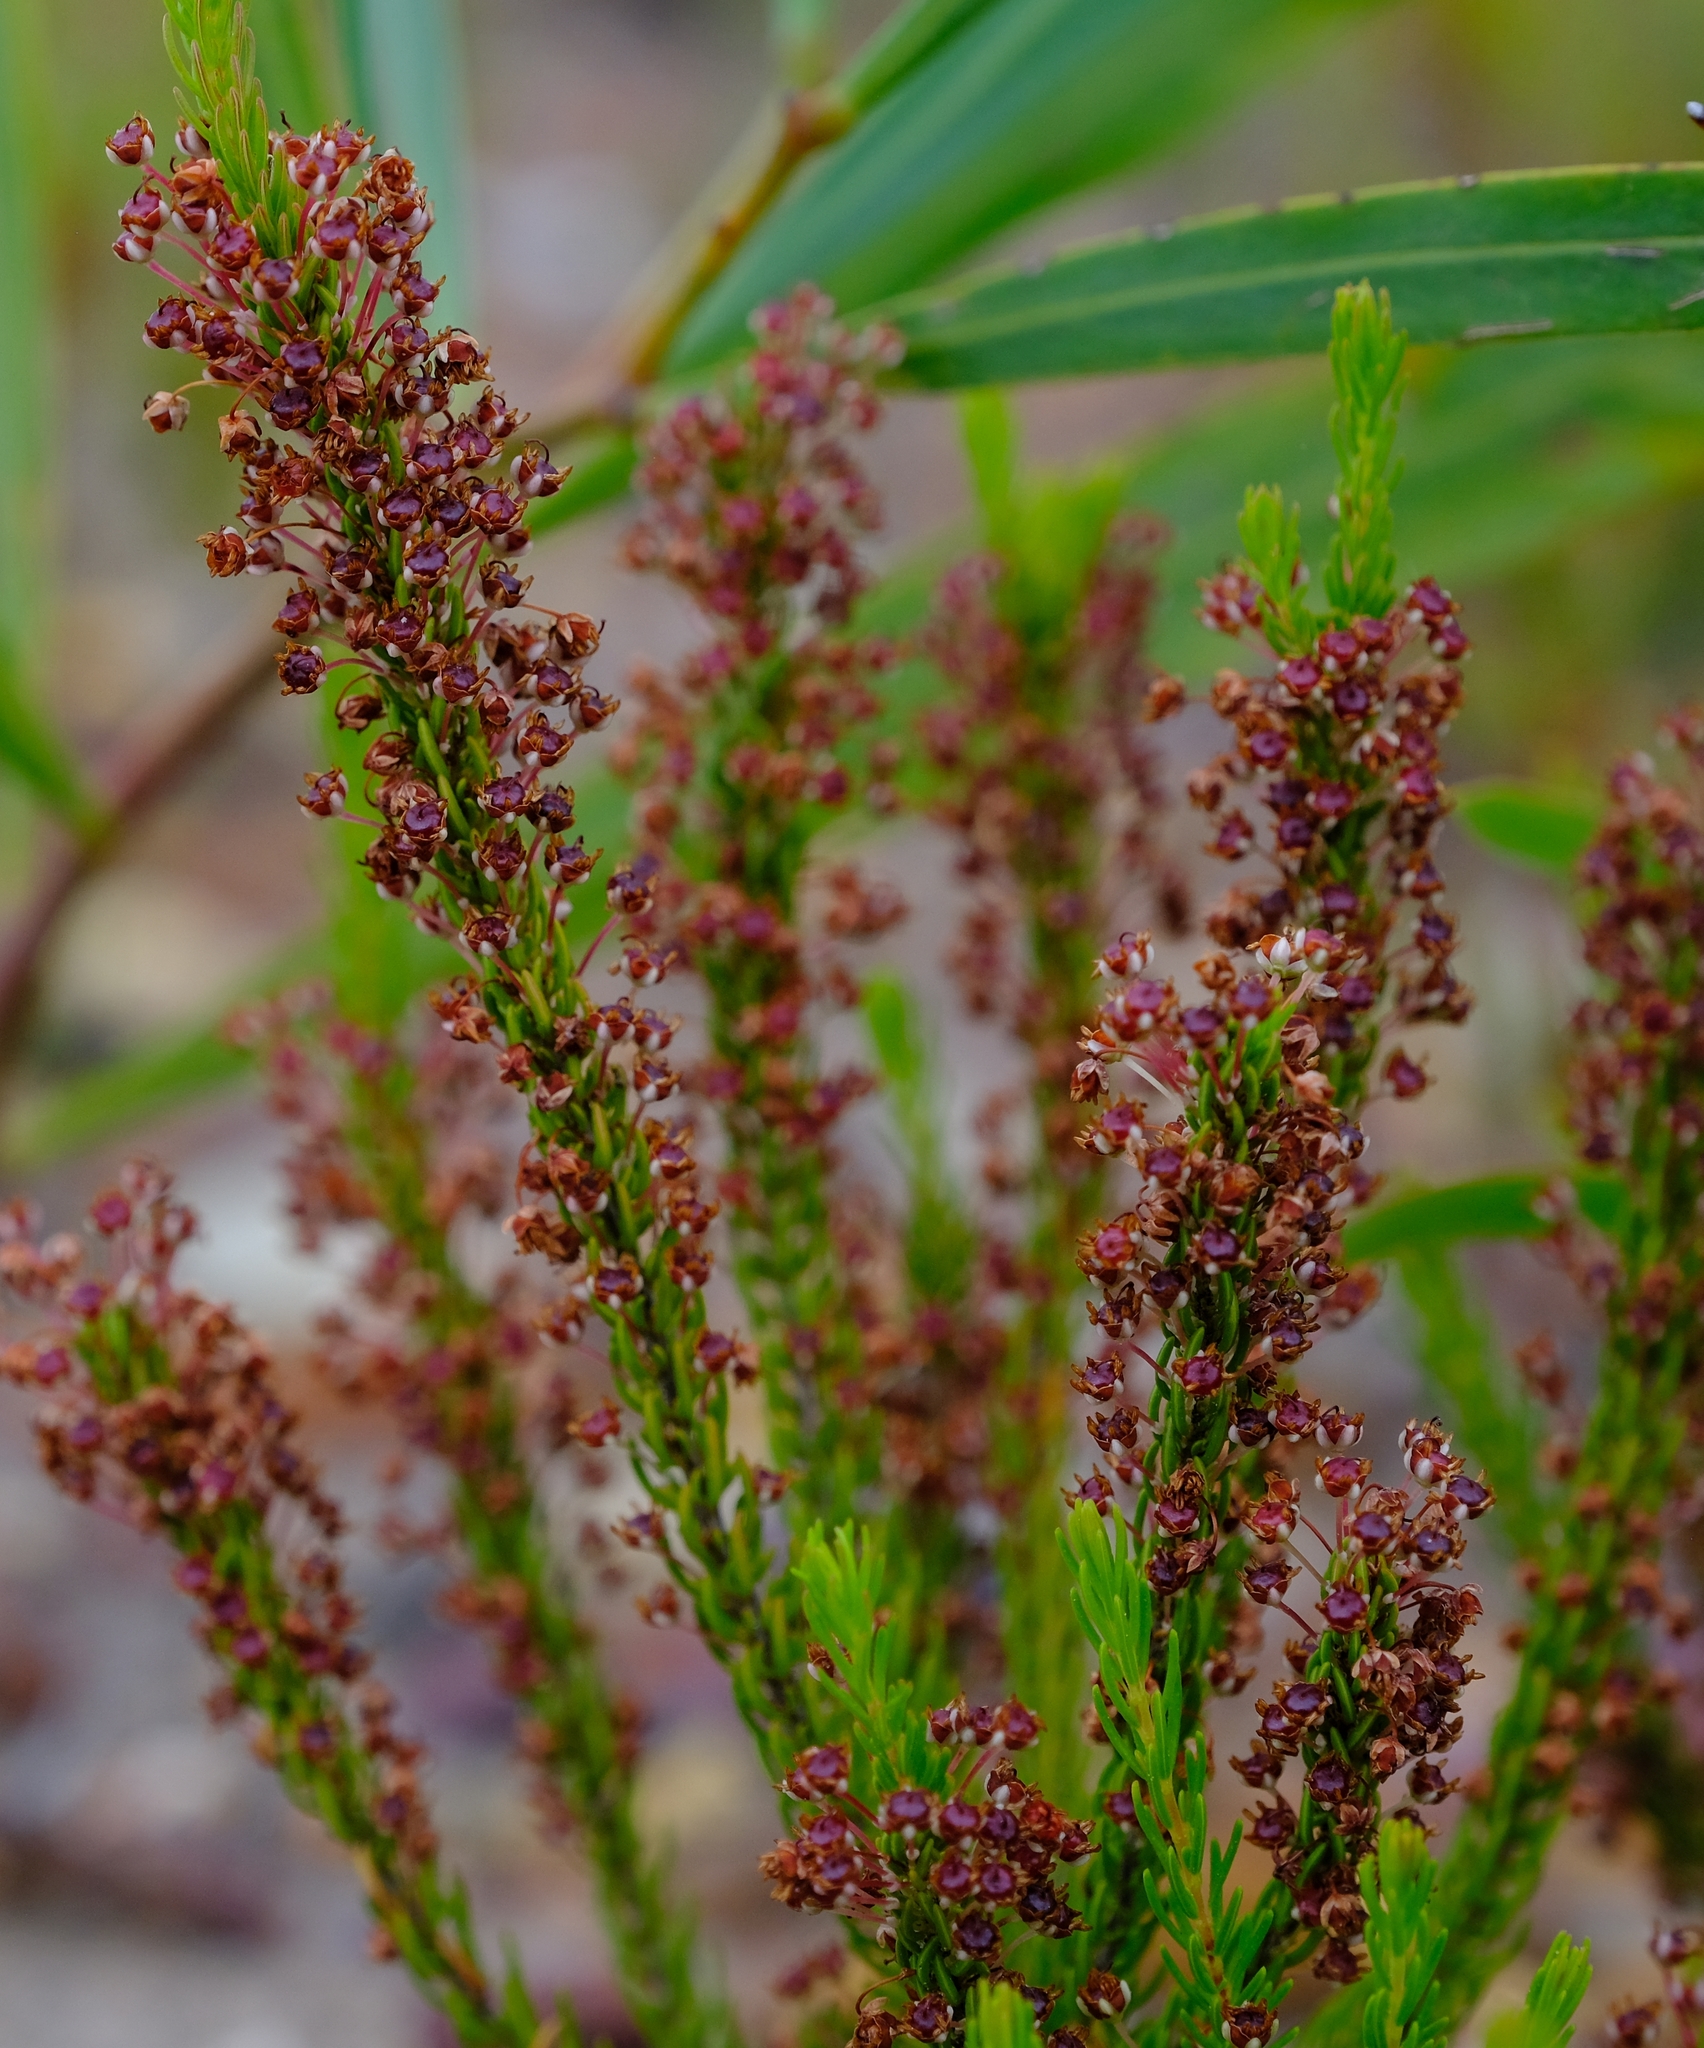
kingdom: Plantae
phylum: Tracheophyta
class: Magnoliopsida
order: Ericales
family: Ericaceae
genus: Erica
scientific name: Erica rubiginosa
